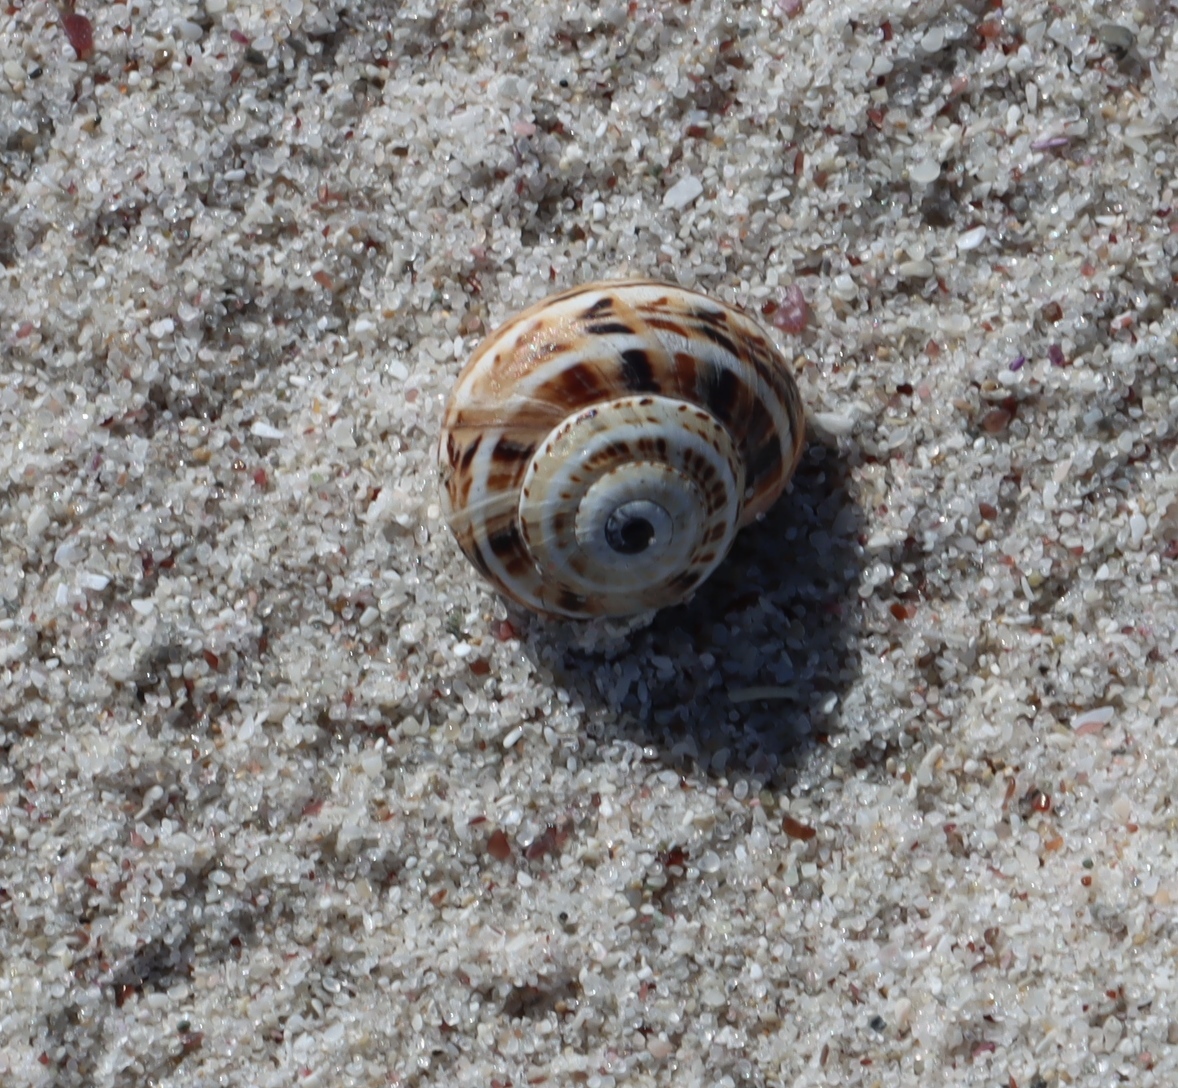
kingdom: Animalia
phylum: Mollusca
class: Gastropoda
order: Stylommatophora
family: Helicidae
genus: Theba
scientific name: Theba pisana
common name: White snail
